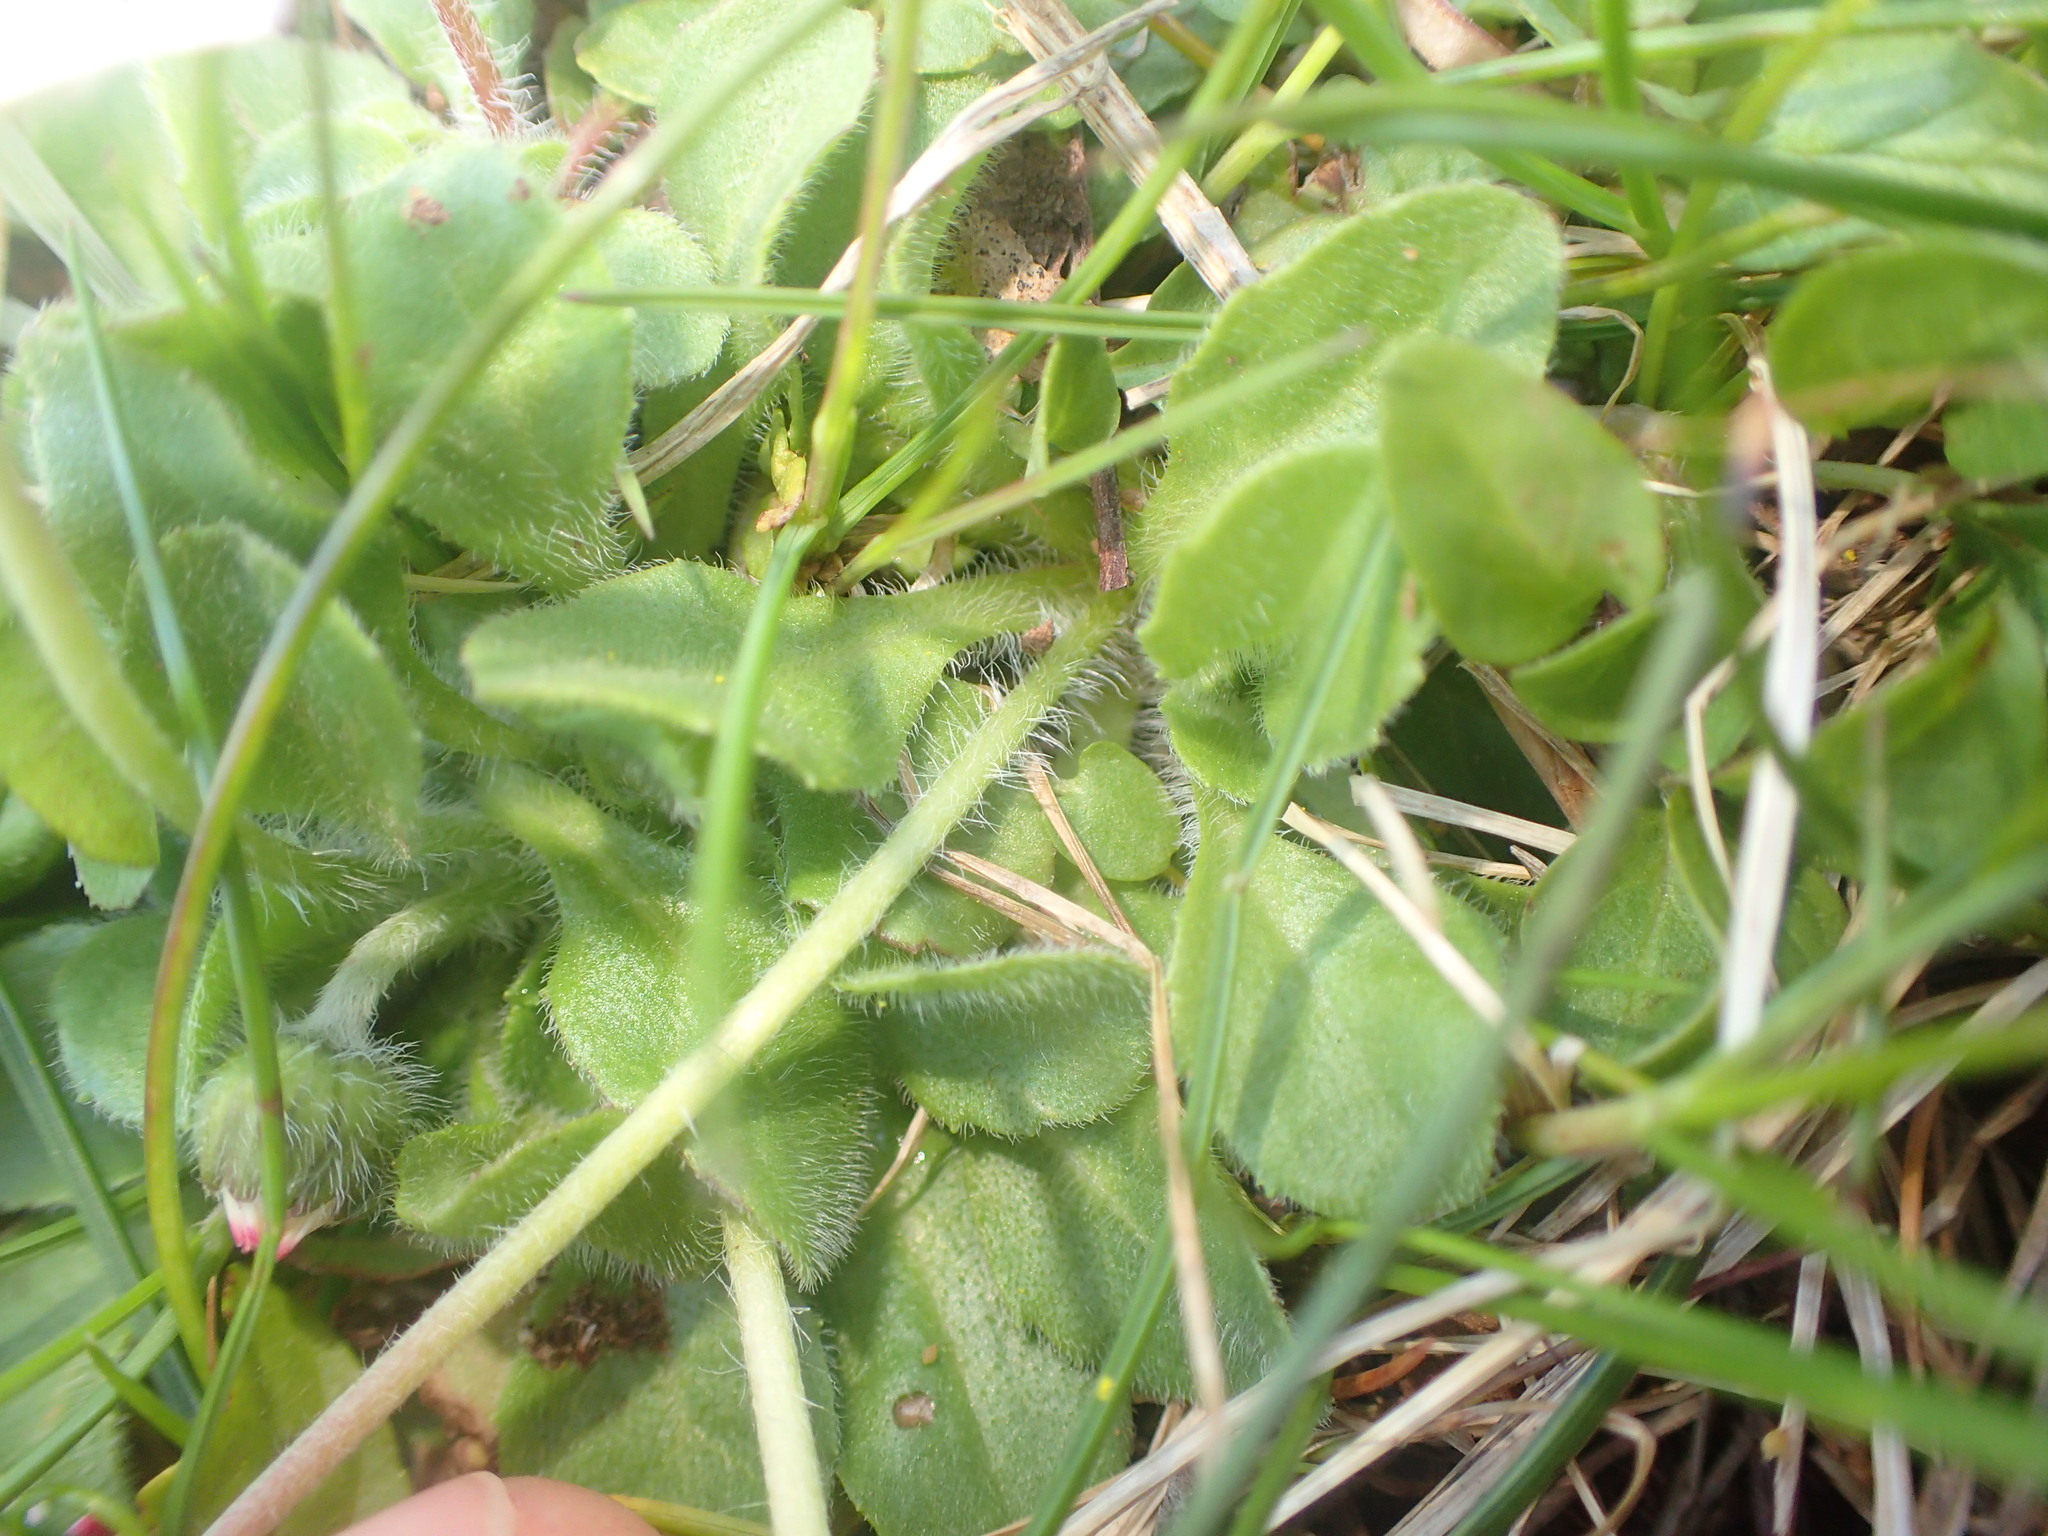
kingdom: Plantae
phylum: Tracheophyta
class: Magnoliopsida
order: Asterales
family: Asteraceae
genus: Bellis
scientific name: Bellis perennis
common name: Lawndaisy
